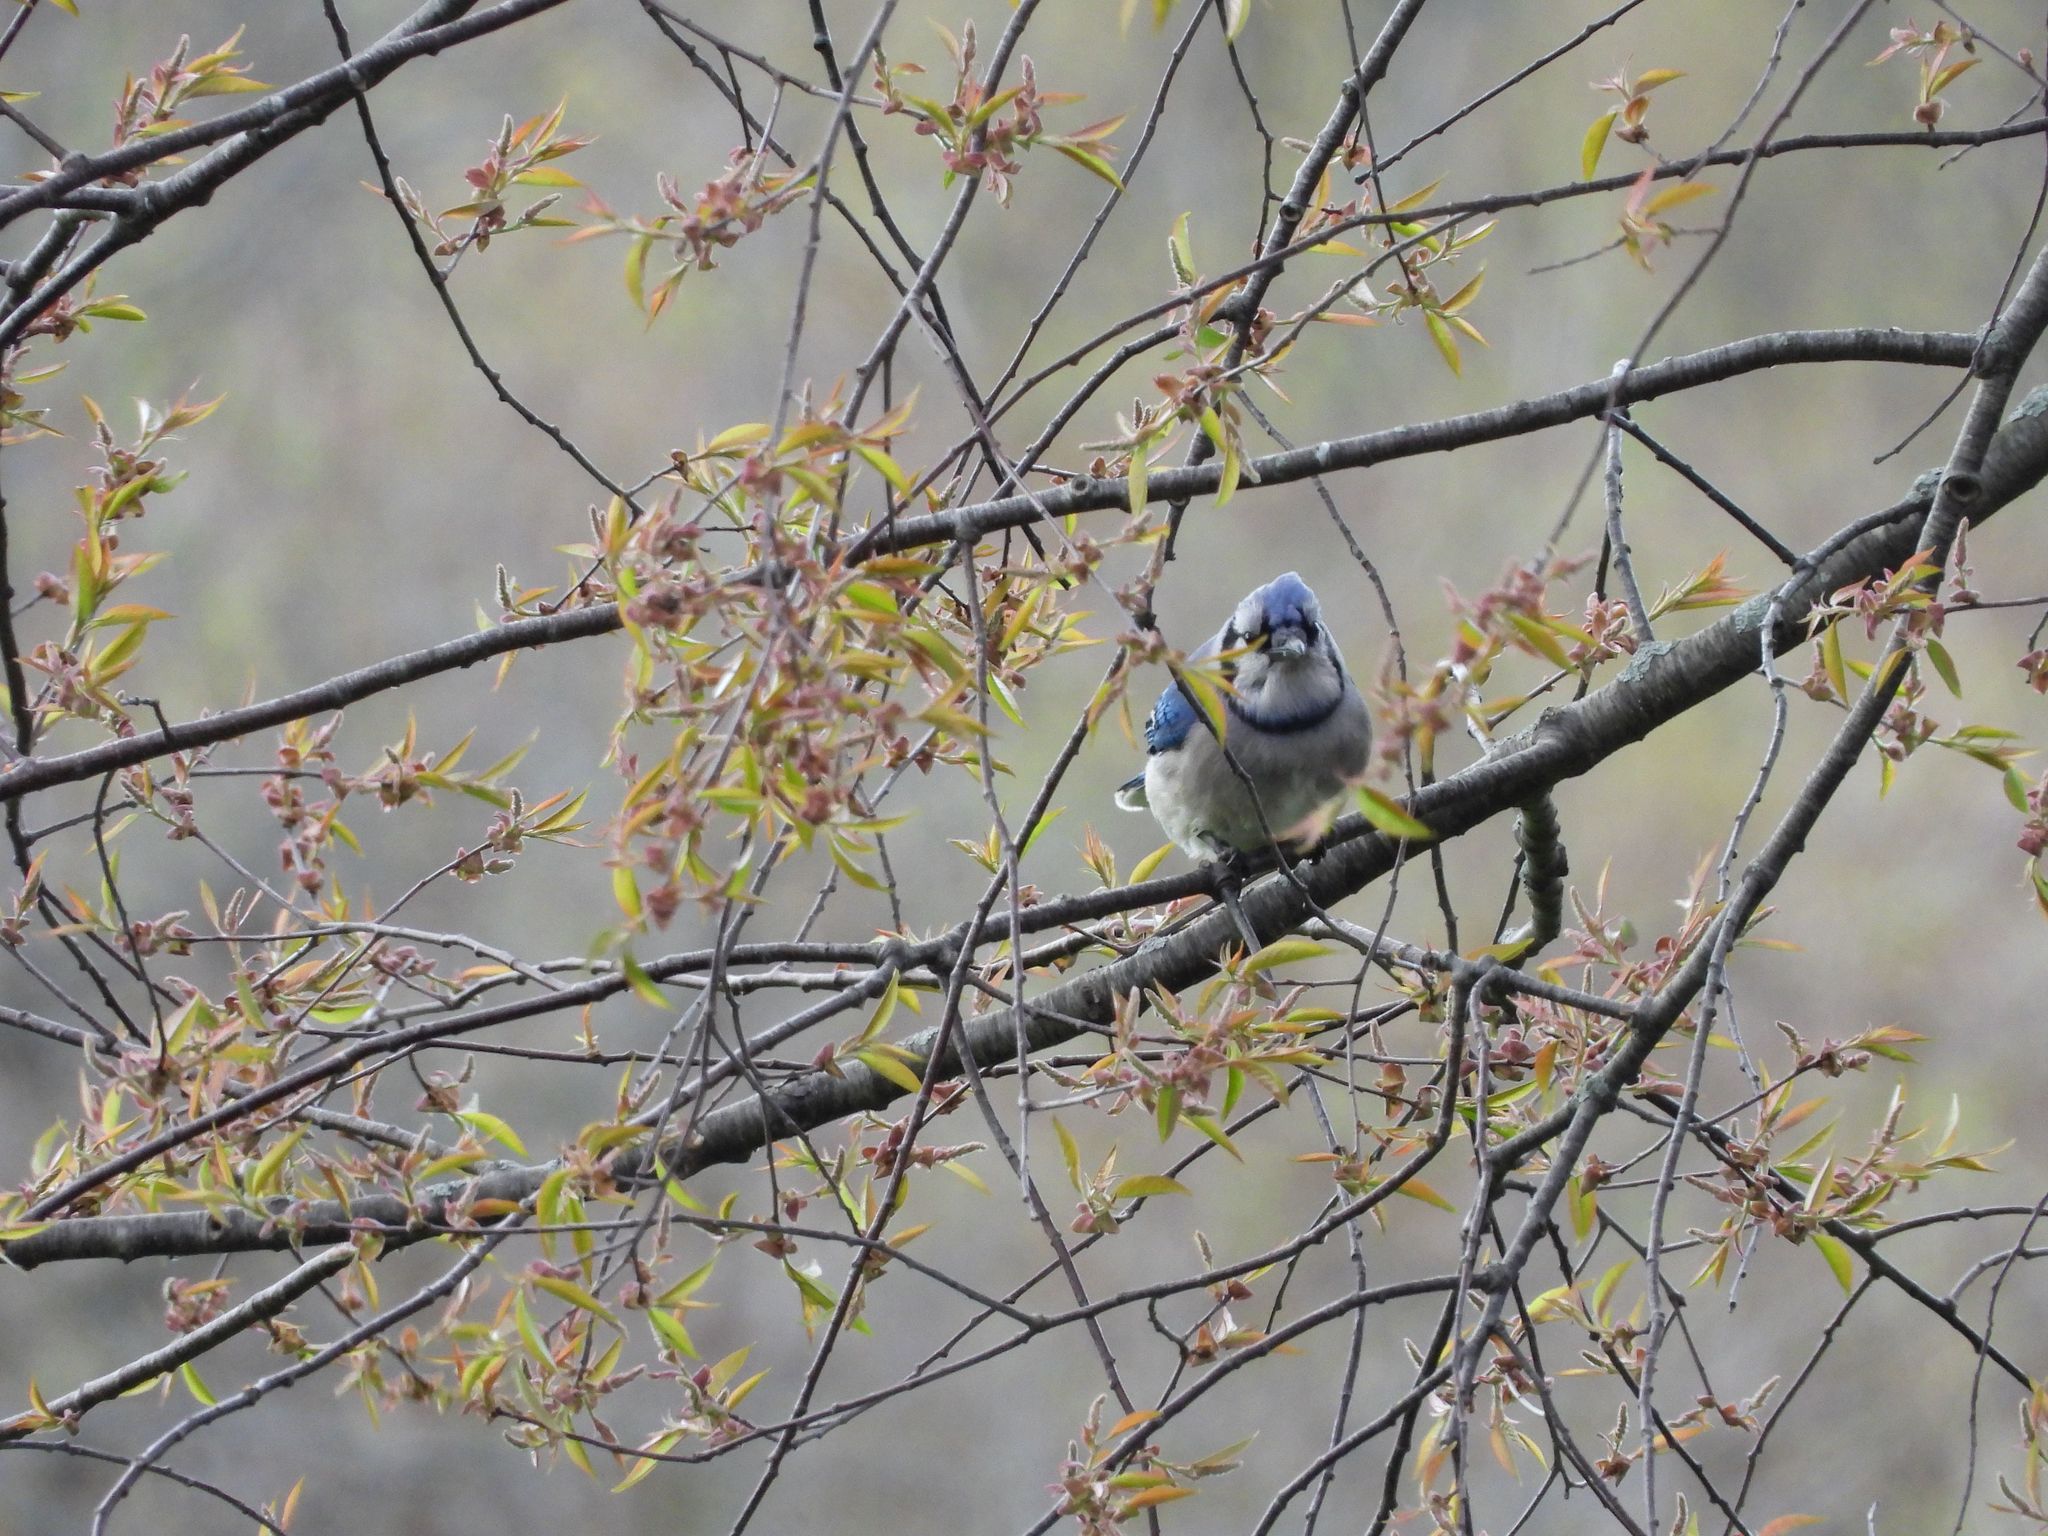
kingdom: Animalia
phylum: Chordata
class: Aves
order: Passeriformes
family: Corvidae
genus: Cyanocitta
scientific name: Cyanocitta cristata
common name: Blue jay
